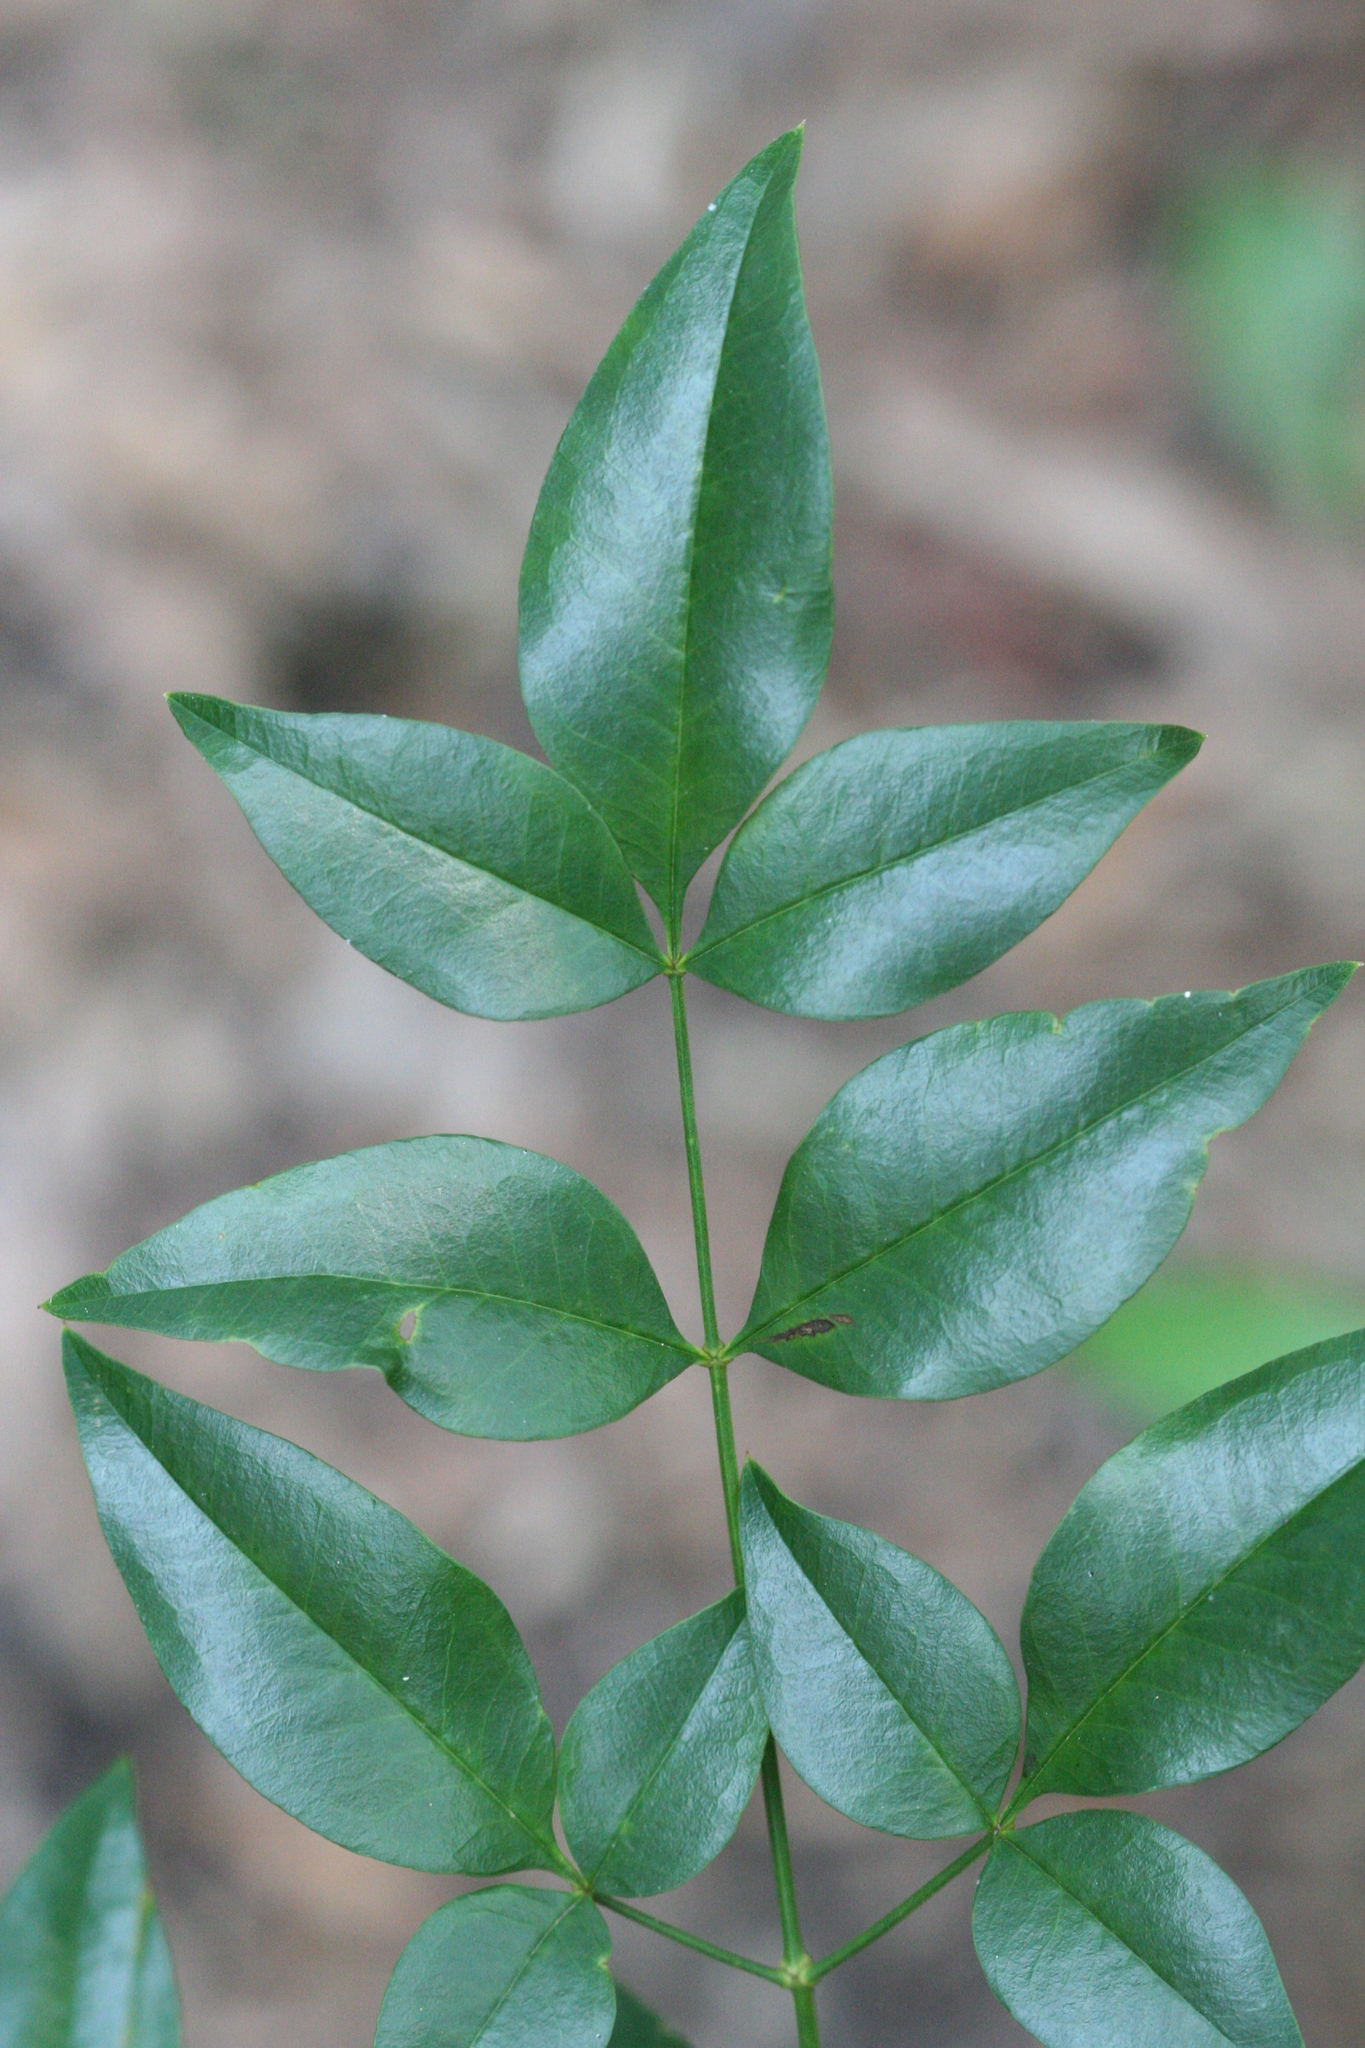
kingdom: Plantae
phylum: Tracheophyta
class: Magnoliopsida
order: Ranunculales
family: Berberidaceae
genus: Nandina
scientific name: Nandina domestica
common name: Sacred bamboo
